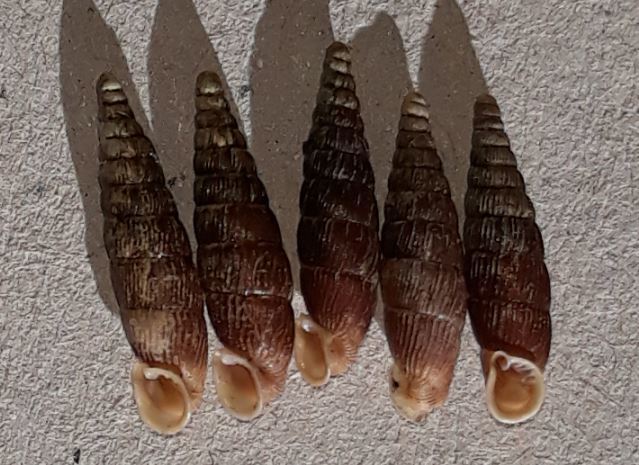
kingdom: Animalia
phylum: Mollusca
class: Gastropoda
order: Stylommatophora
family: Clausiliidae
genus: Macrogastra
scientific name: Macrogastra plicatula
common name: Plicate door snail
